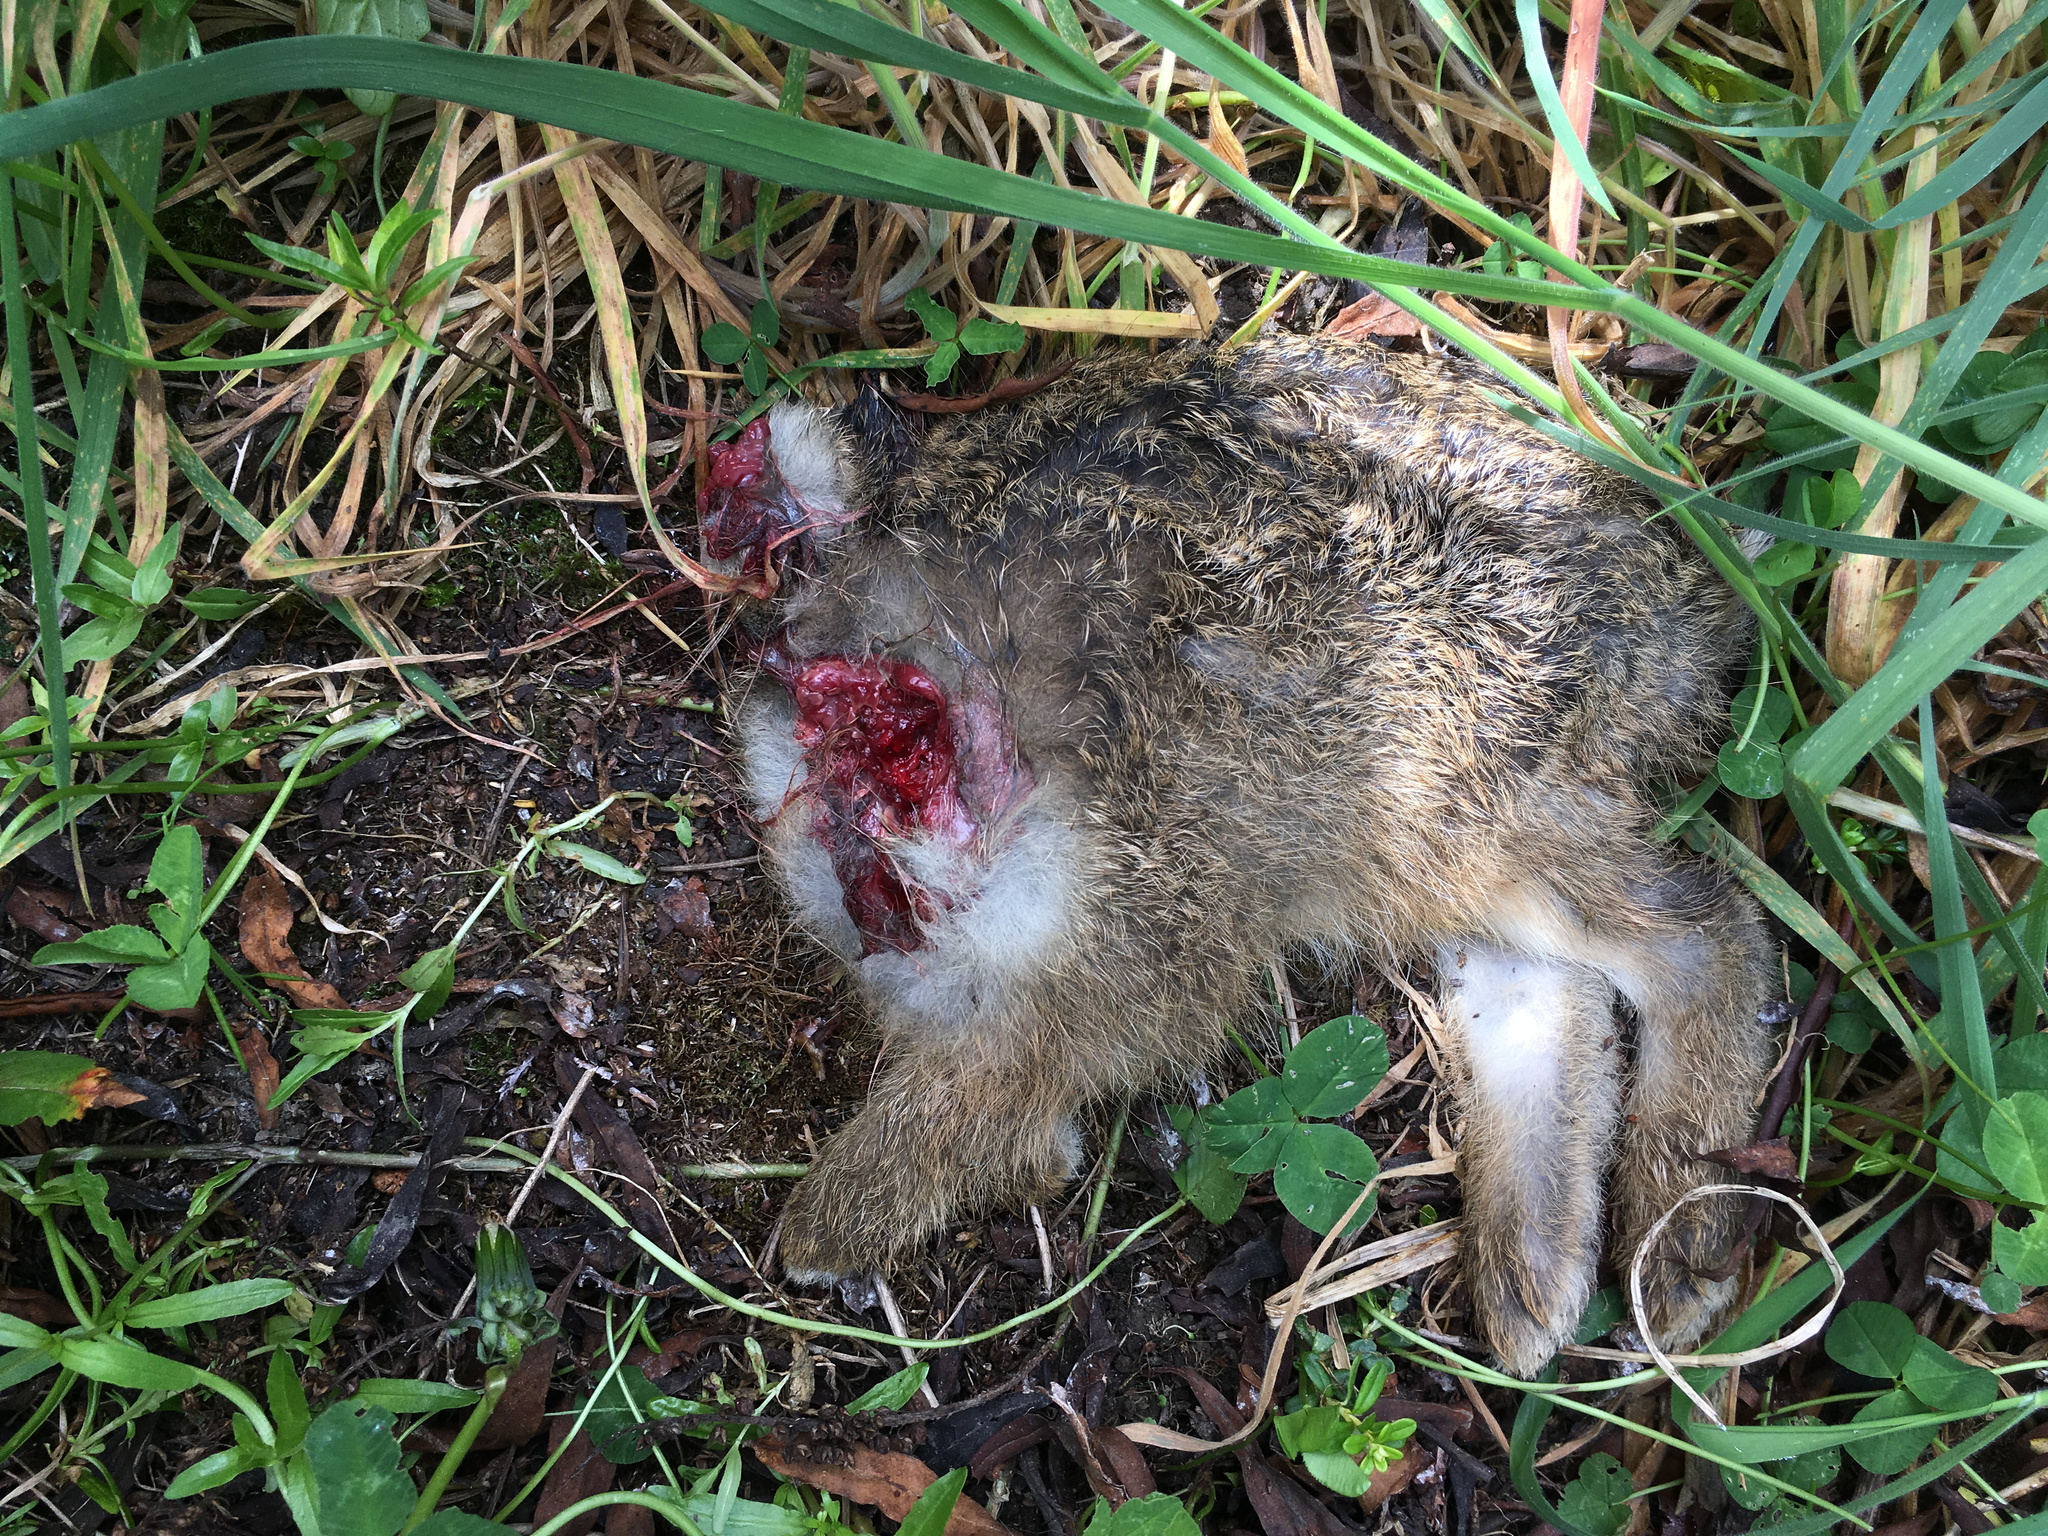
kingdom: Animalia
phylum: Chordata
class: Mammalia
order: Lagomorpha
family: Leporidae
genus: Lepus
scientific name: Lepus europaeus
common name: European hare
